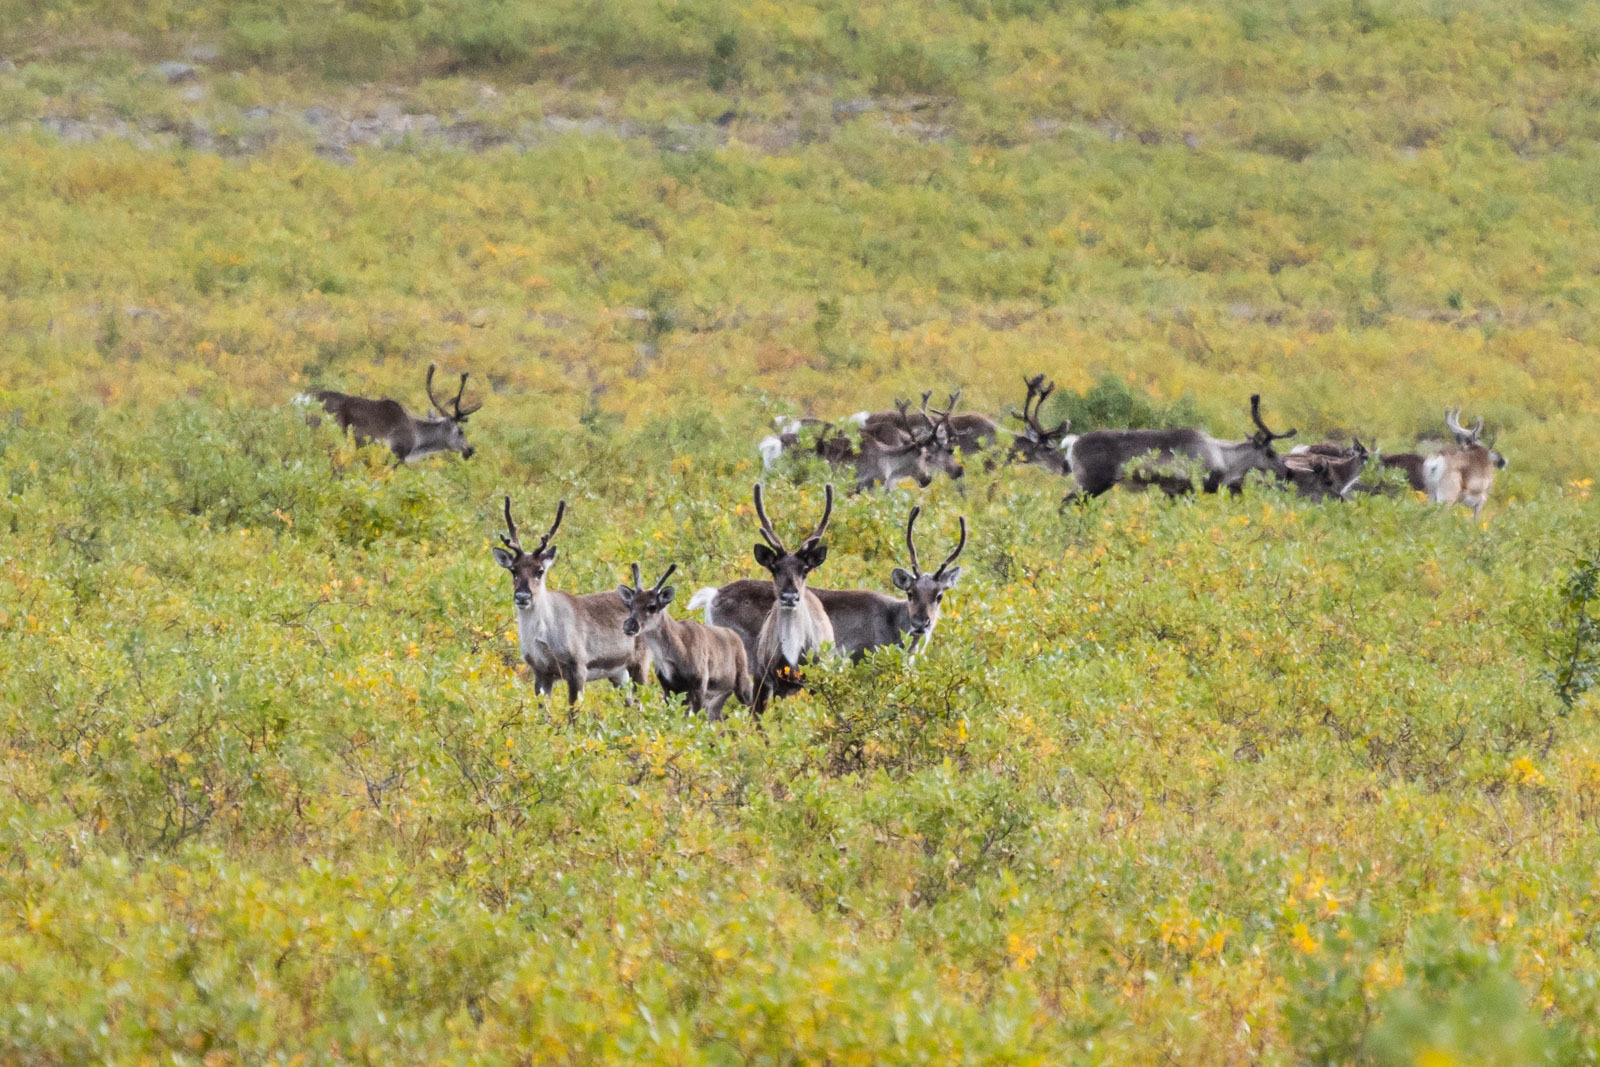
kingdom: Animalia
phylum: Chordata
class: Mammalia
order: Artiodactyla
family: Cervidae
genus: Rangifer
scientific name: Rangifer tarandus
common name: Reindeer
